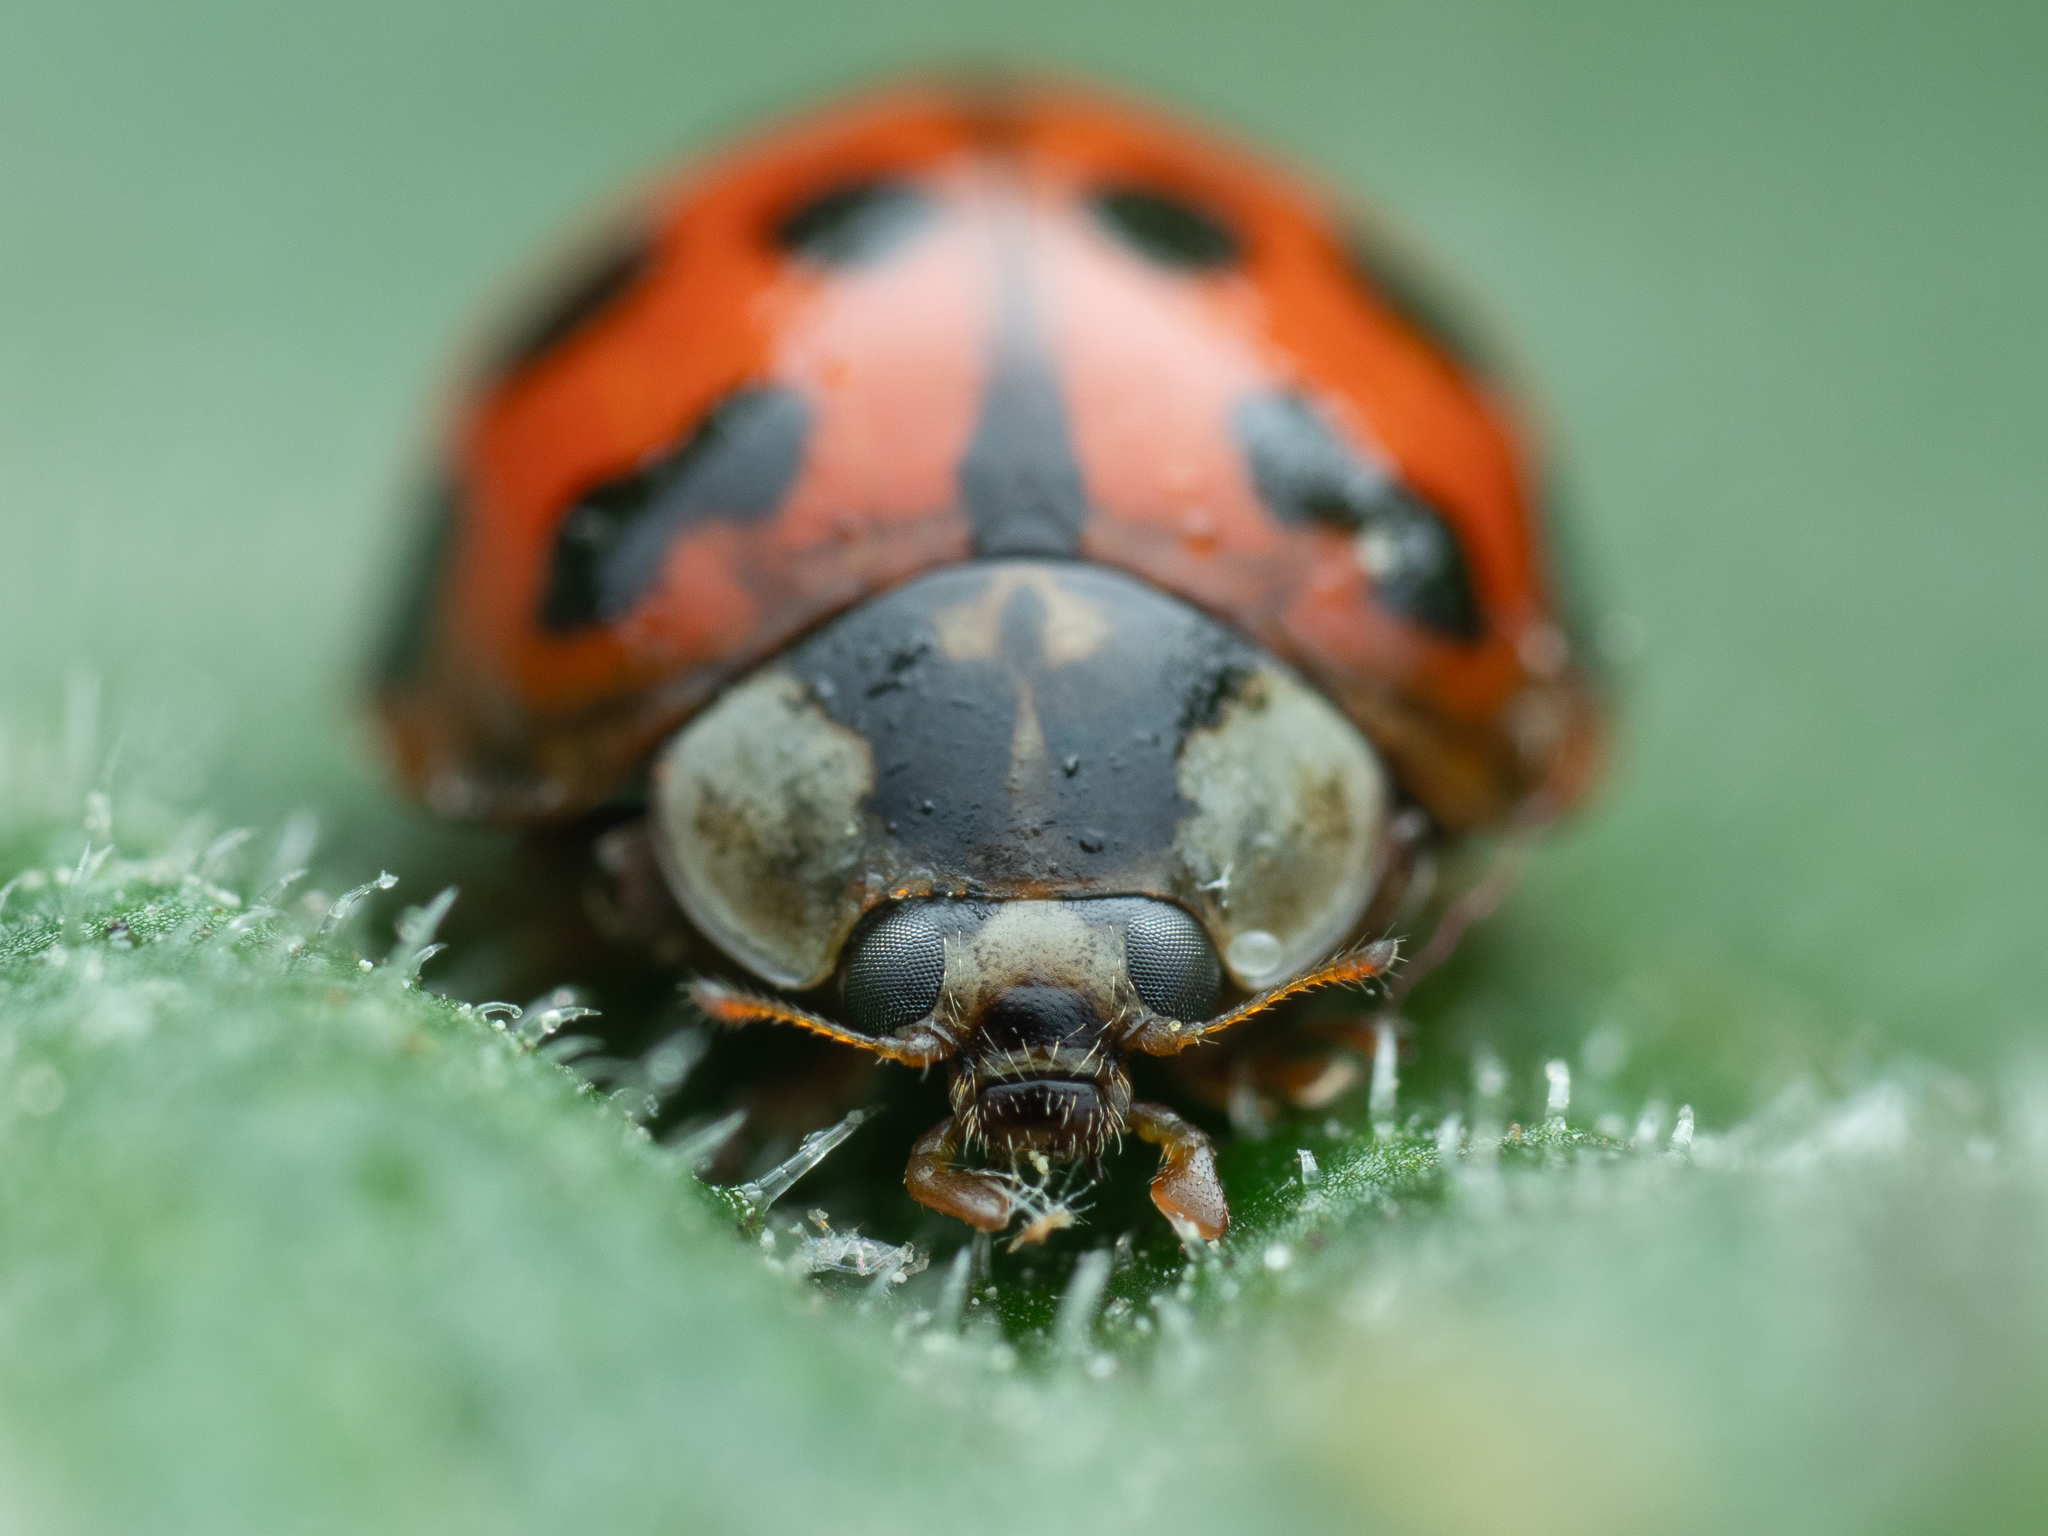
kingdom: Animalia
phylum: Arthropoda
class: Insecta
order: Coleoptera
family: Coccinellidae
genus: Harmonia
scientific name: Harmonia axyridis
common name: Harlequin ladybird
